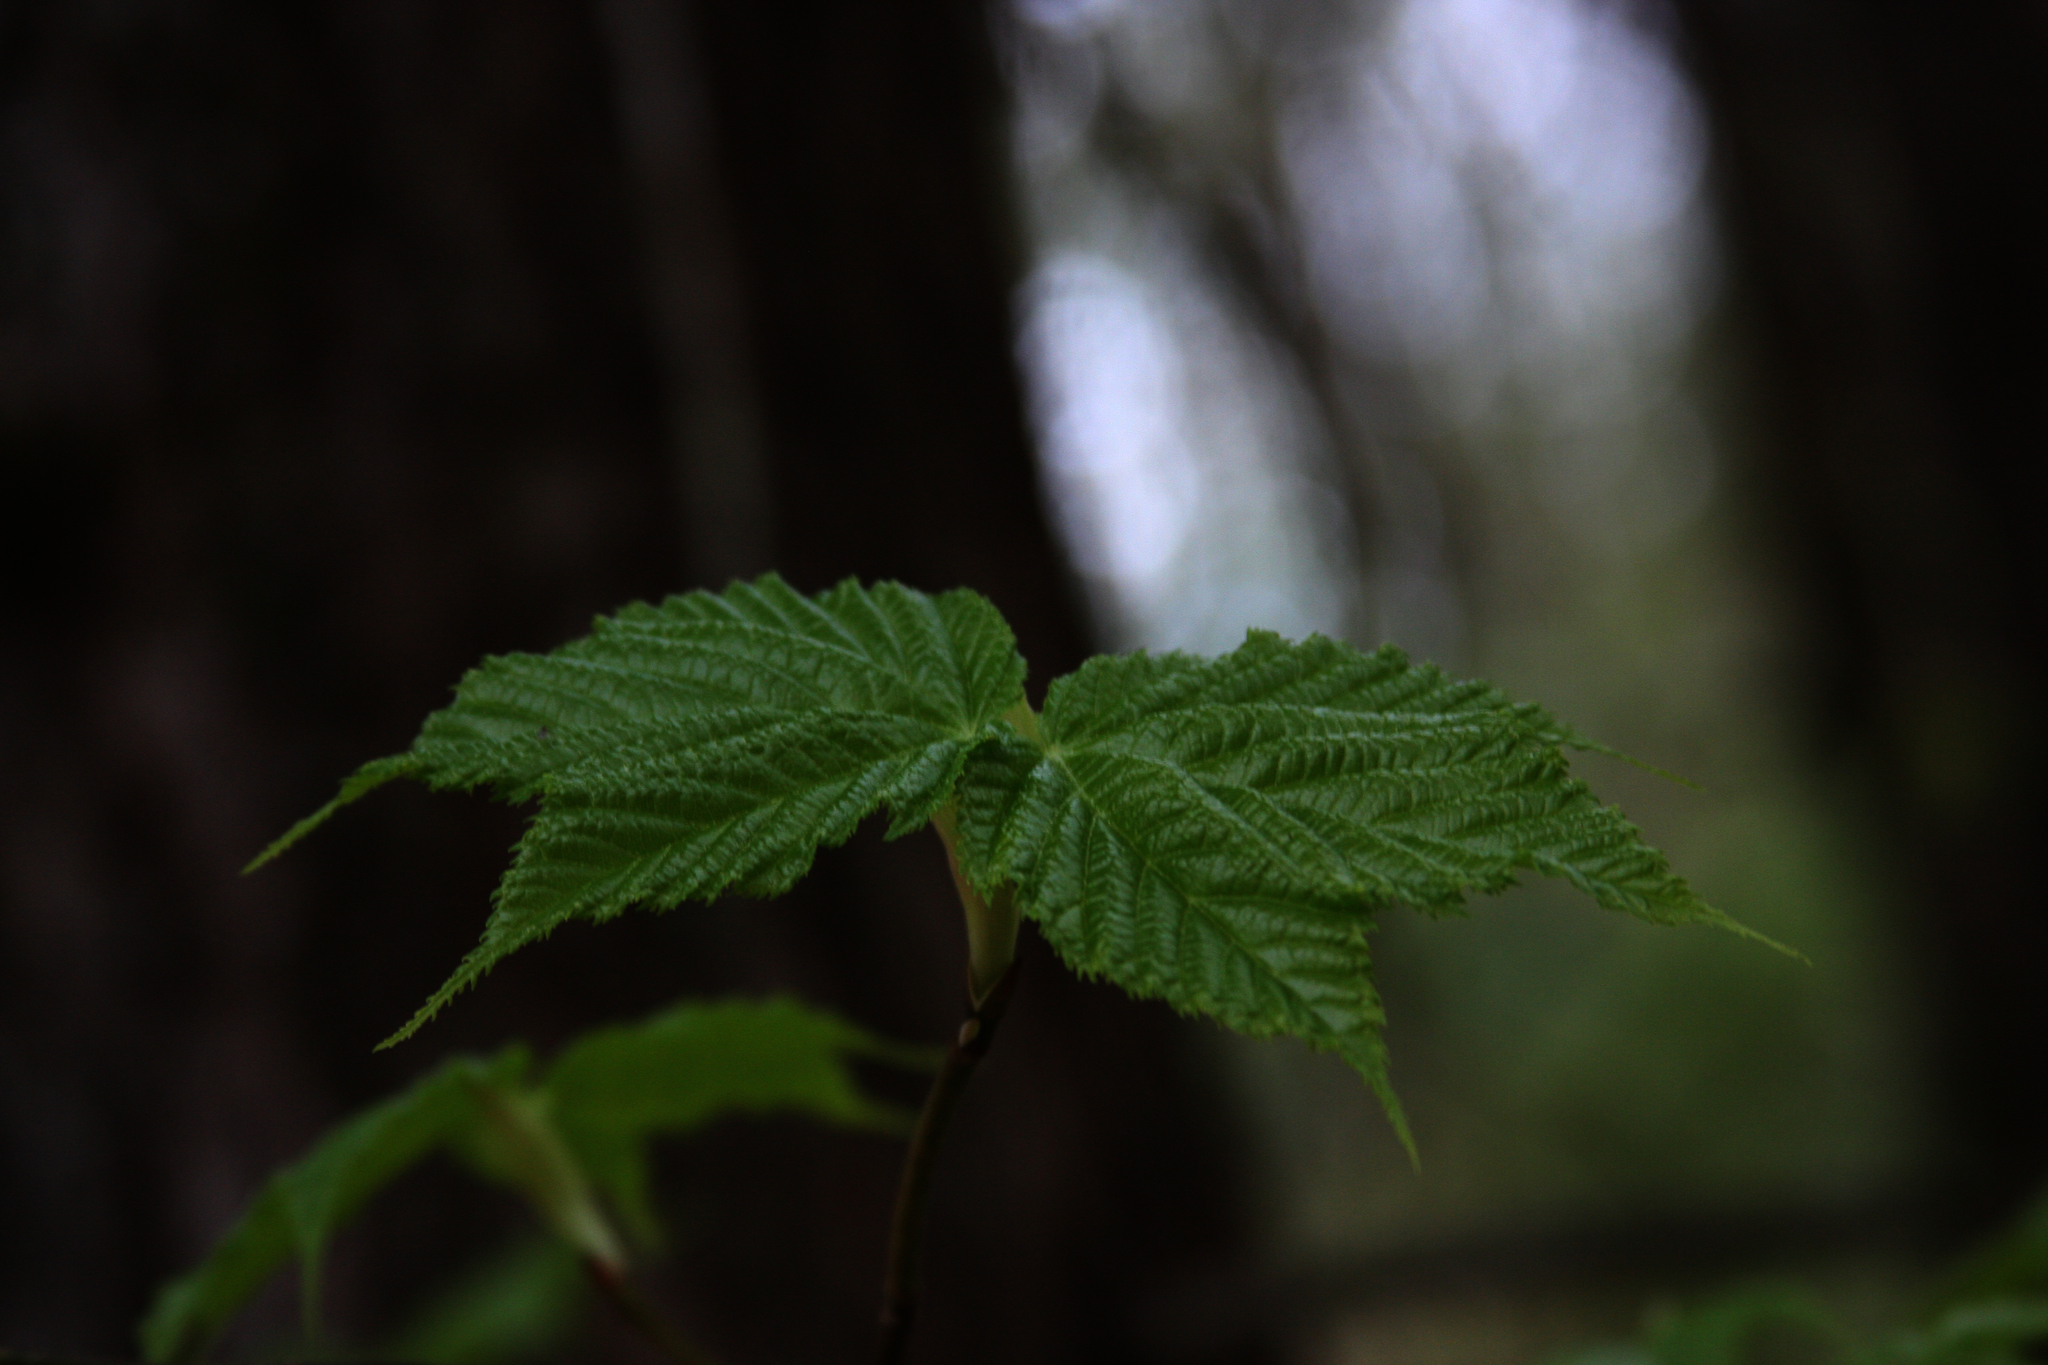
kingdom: Plantae
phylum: Tracheophyta
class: Magnoliopsida
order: Sapindales
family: Sapindaceae
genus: Acer
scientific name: Acer pensylvanicum
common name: Moosewood
